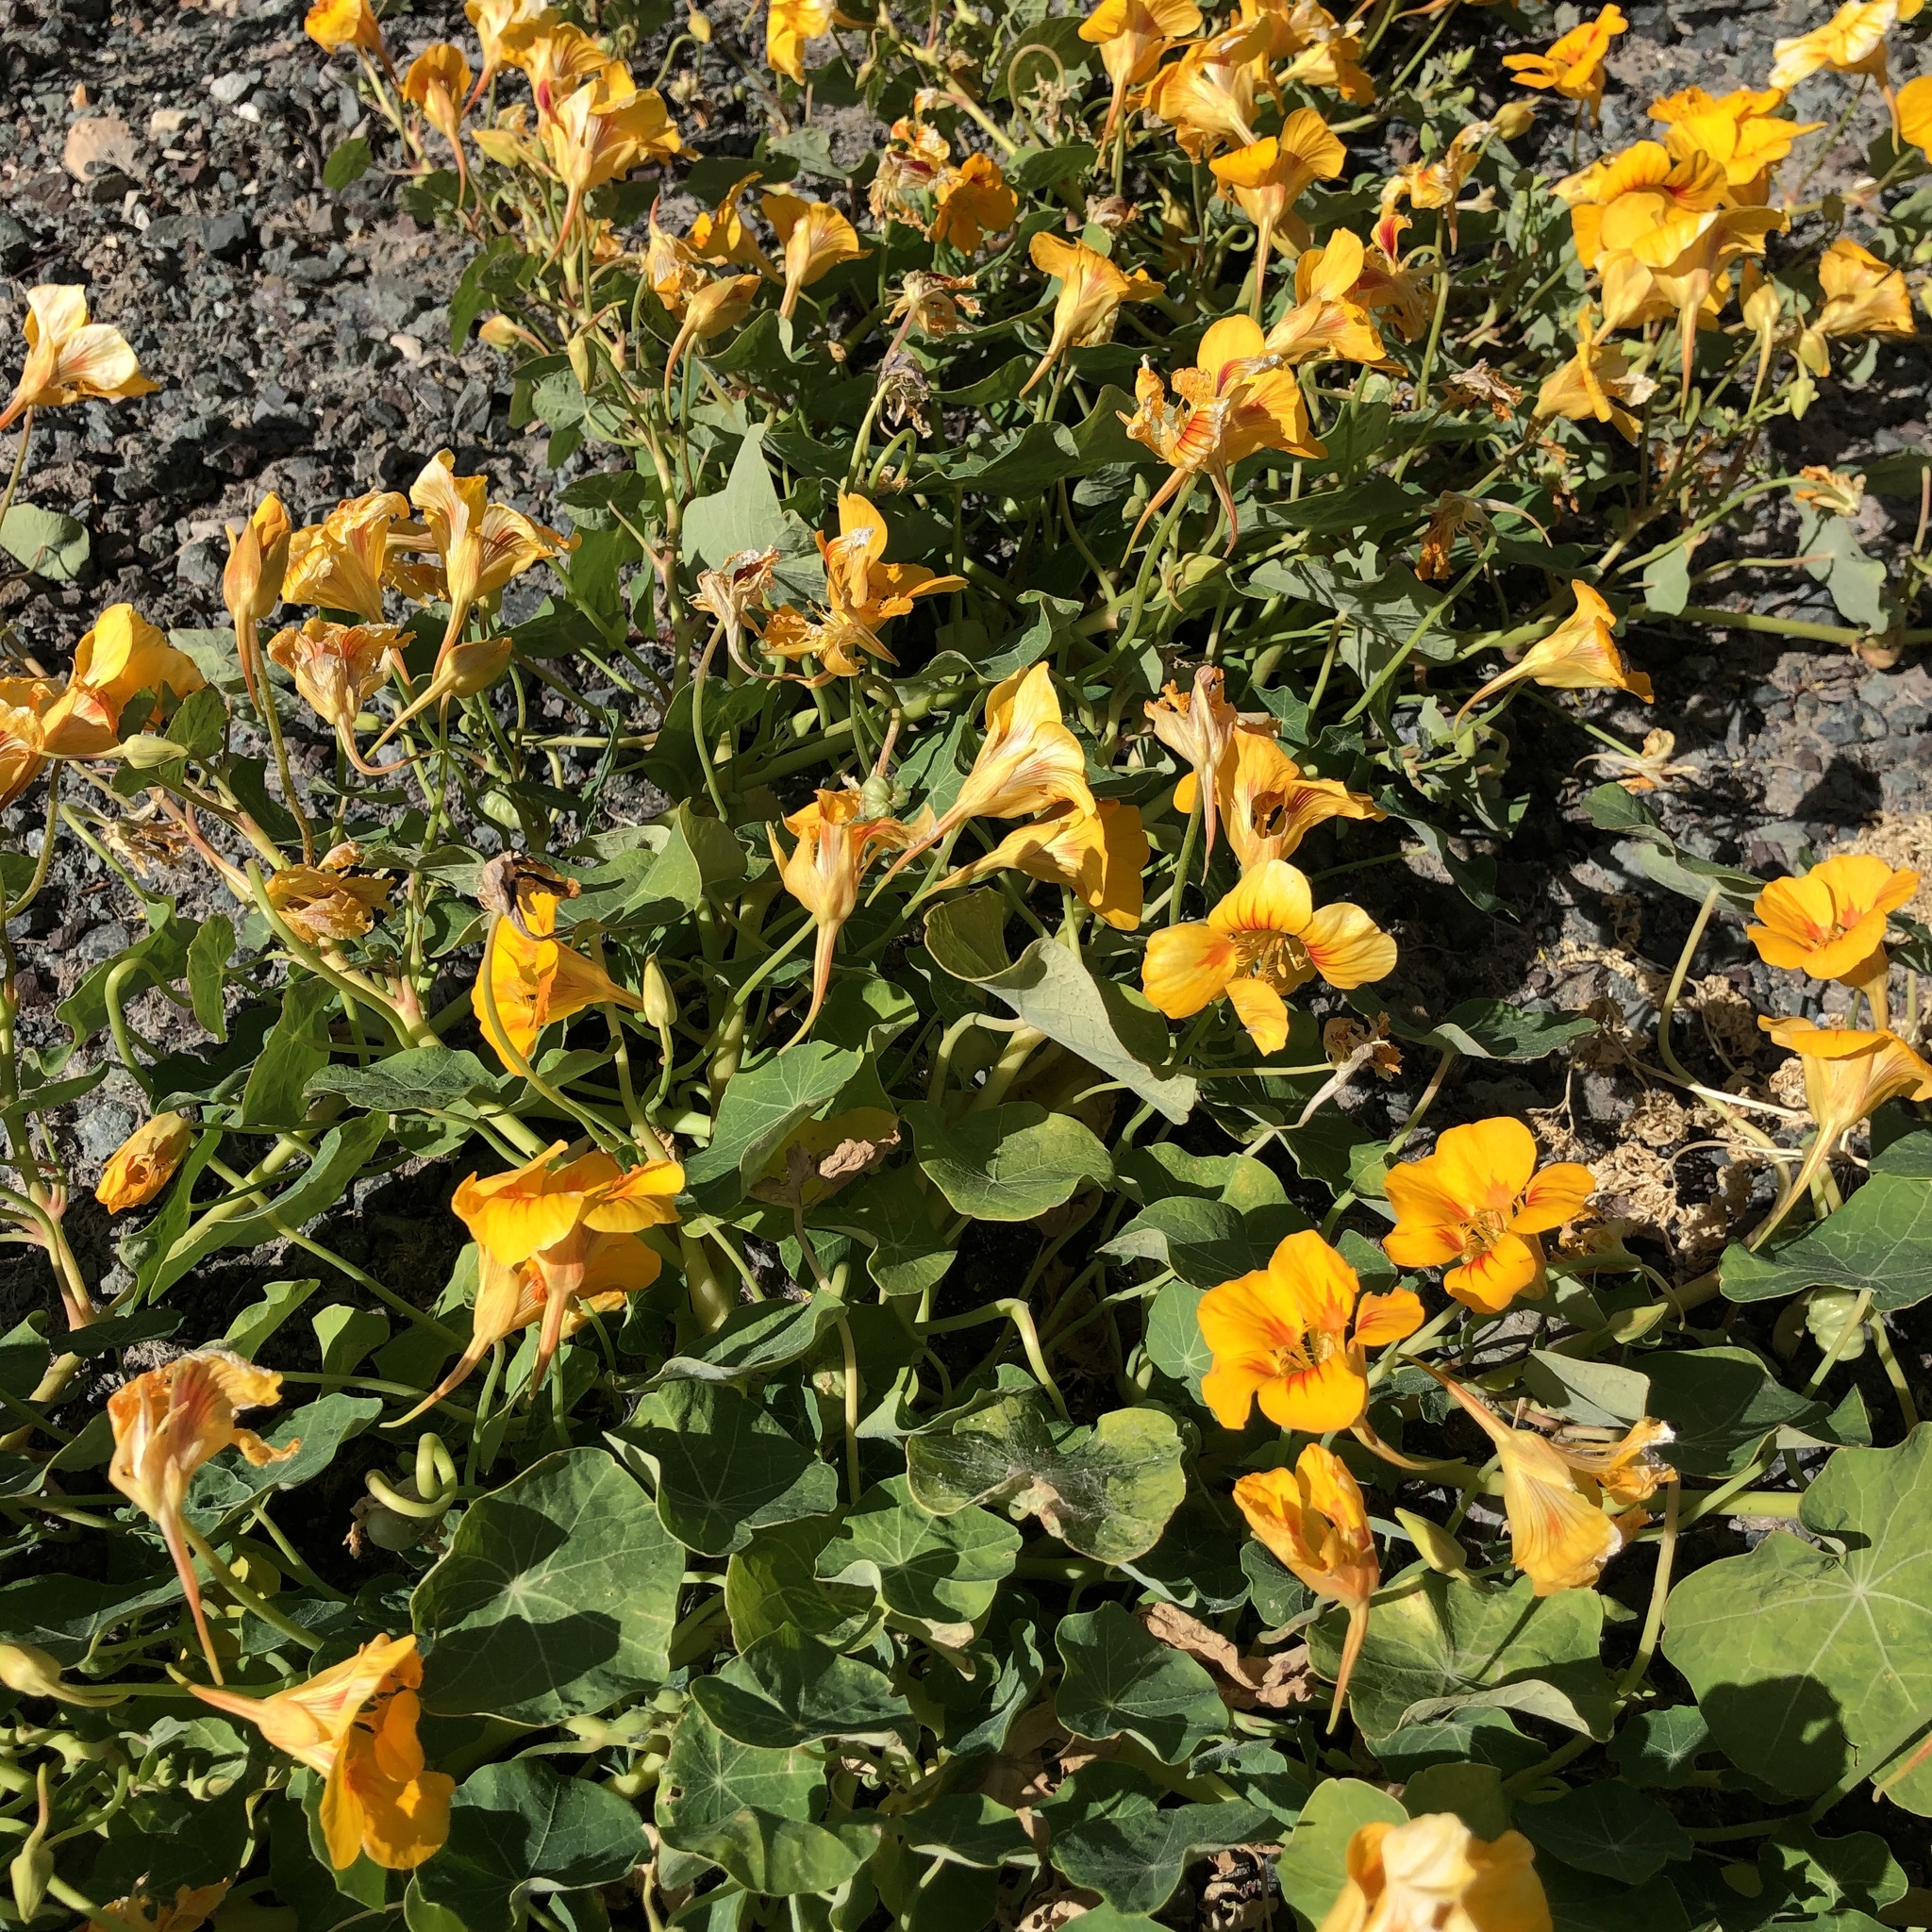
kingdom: Plantae
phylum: Tracheophyta
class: Magnoliopsida
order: Brassicales
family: Tropaeolaceae
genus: Tropaeolum
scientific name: Tropaeolum majus
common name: Nasturtium
